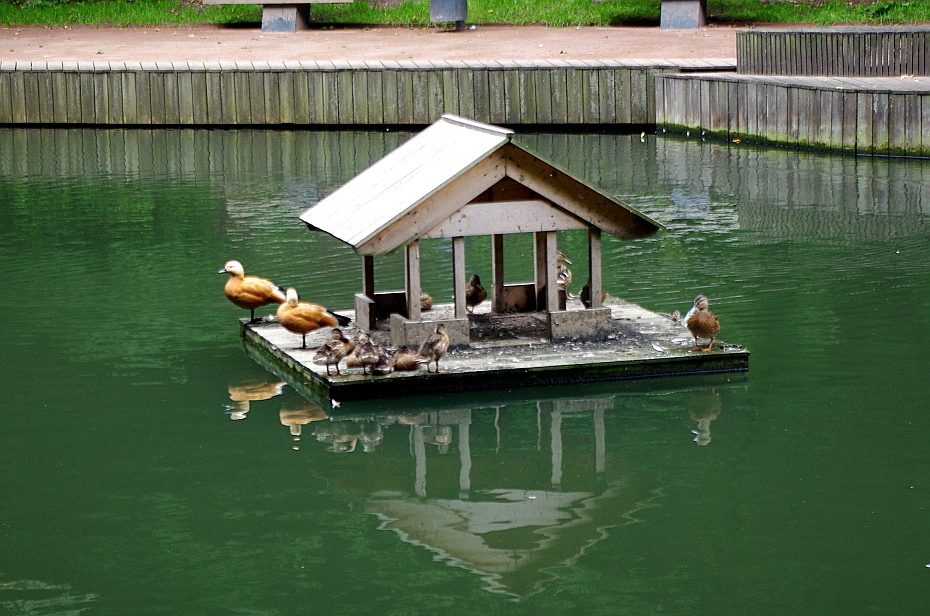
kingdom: Animalia
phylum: Chordata
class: Aves
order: Anseriformes
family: Anatidae
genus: Tadorna
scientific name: Tadorna ferruginea
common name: Ruddy shelduck
